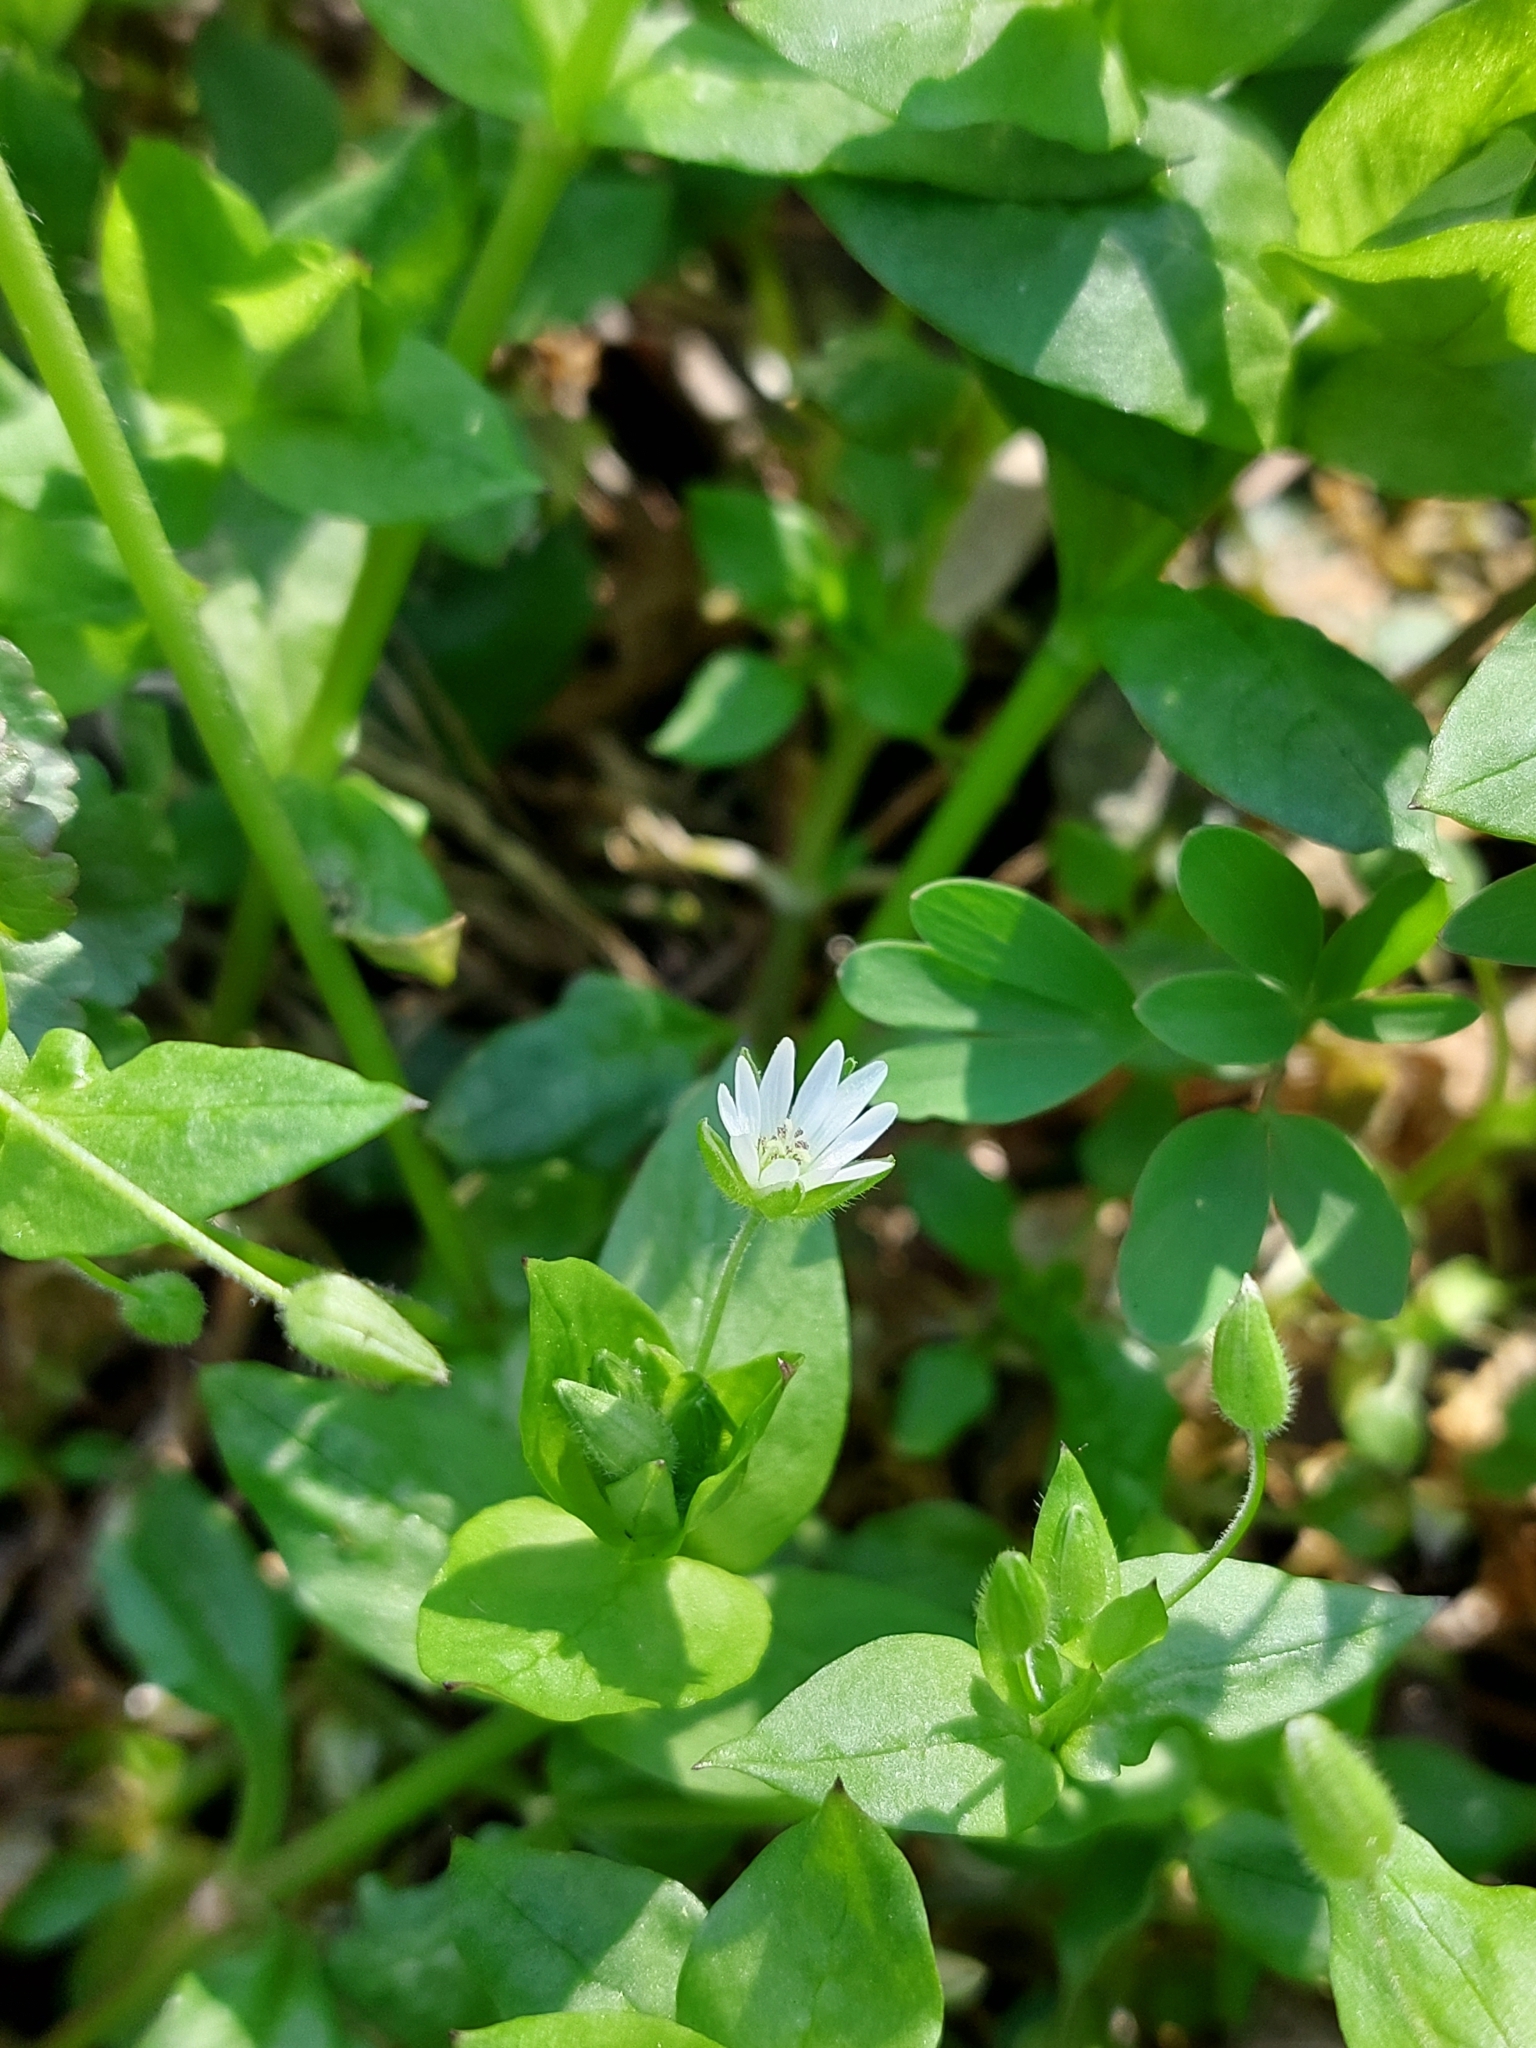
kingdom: Plantae
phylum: Tracheophyta
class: Magnoliopsida
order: Caryophyllales
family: Caryophyllaceae
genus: Stellaria
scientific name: Stellaria media
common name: Common chickweed
